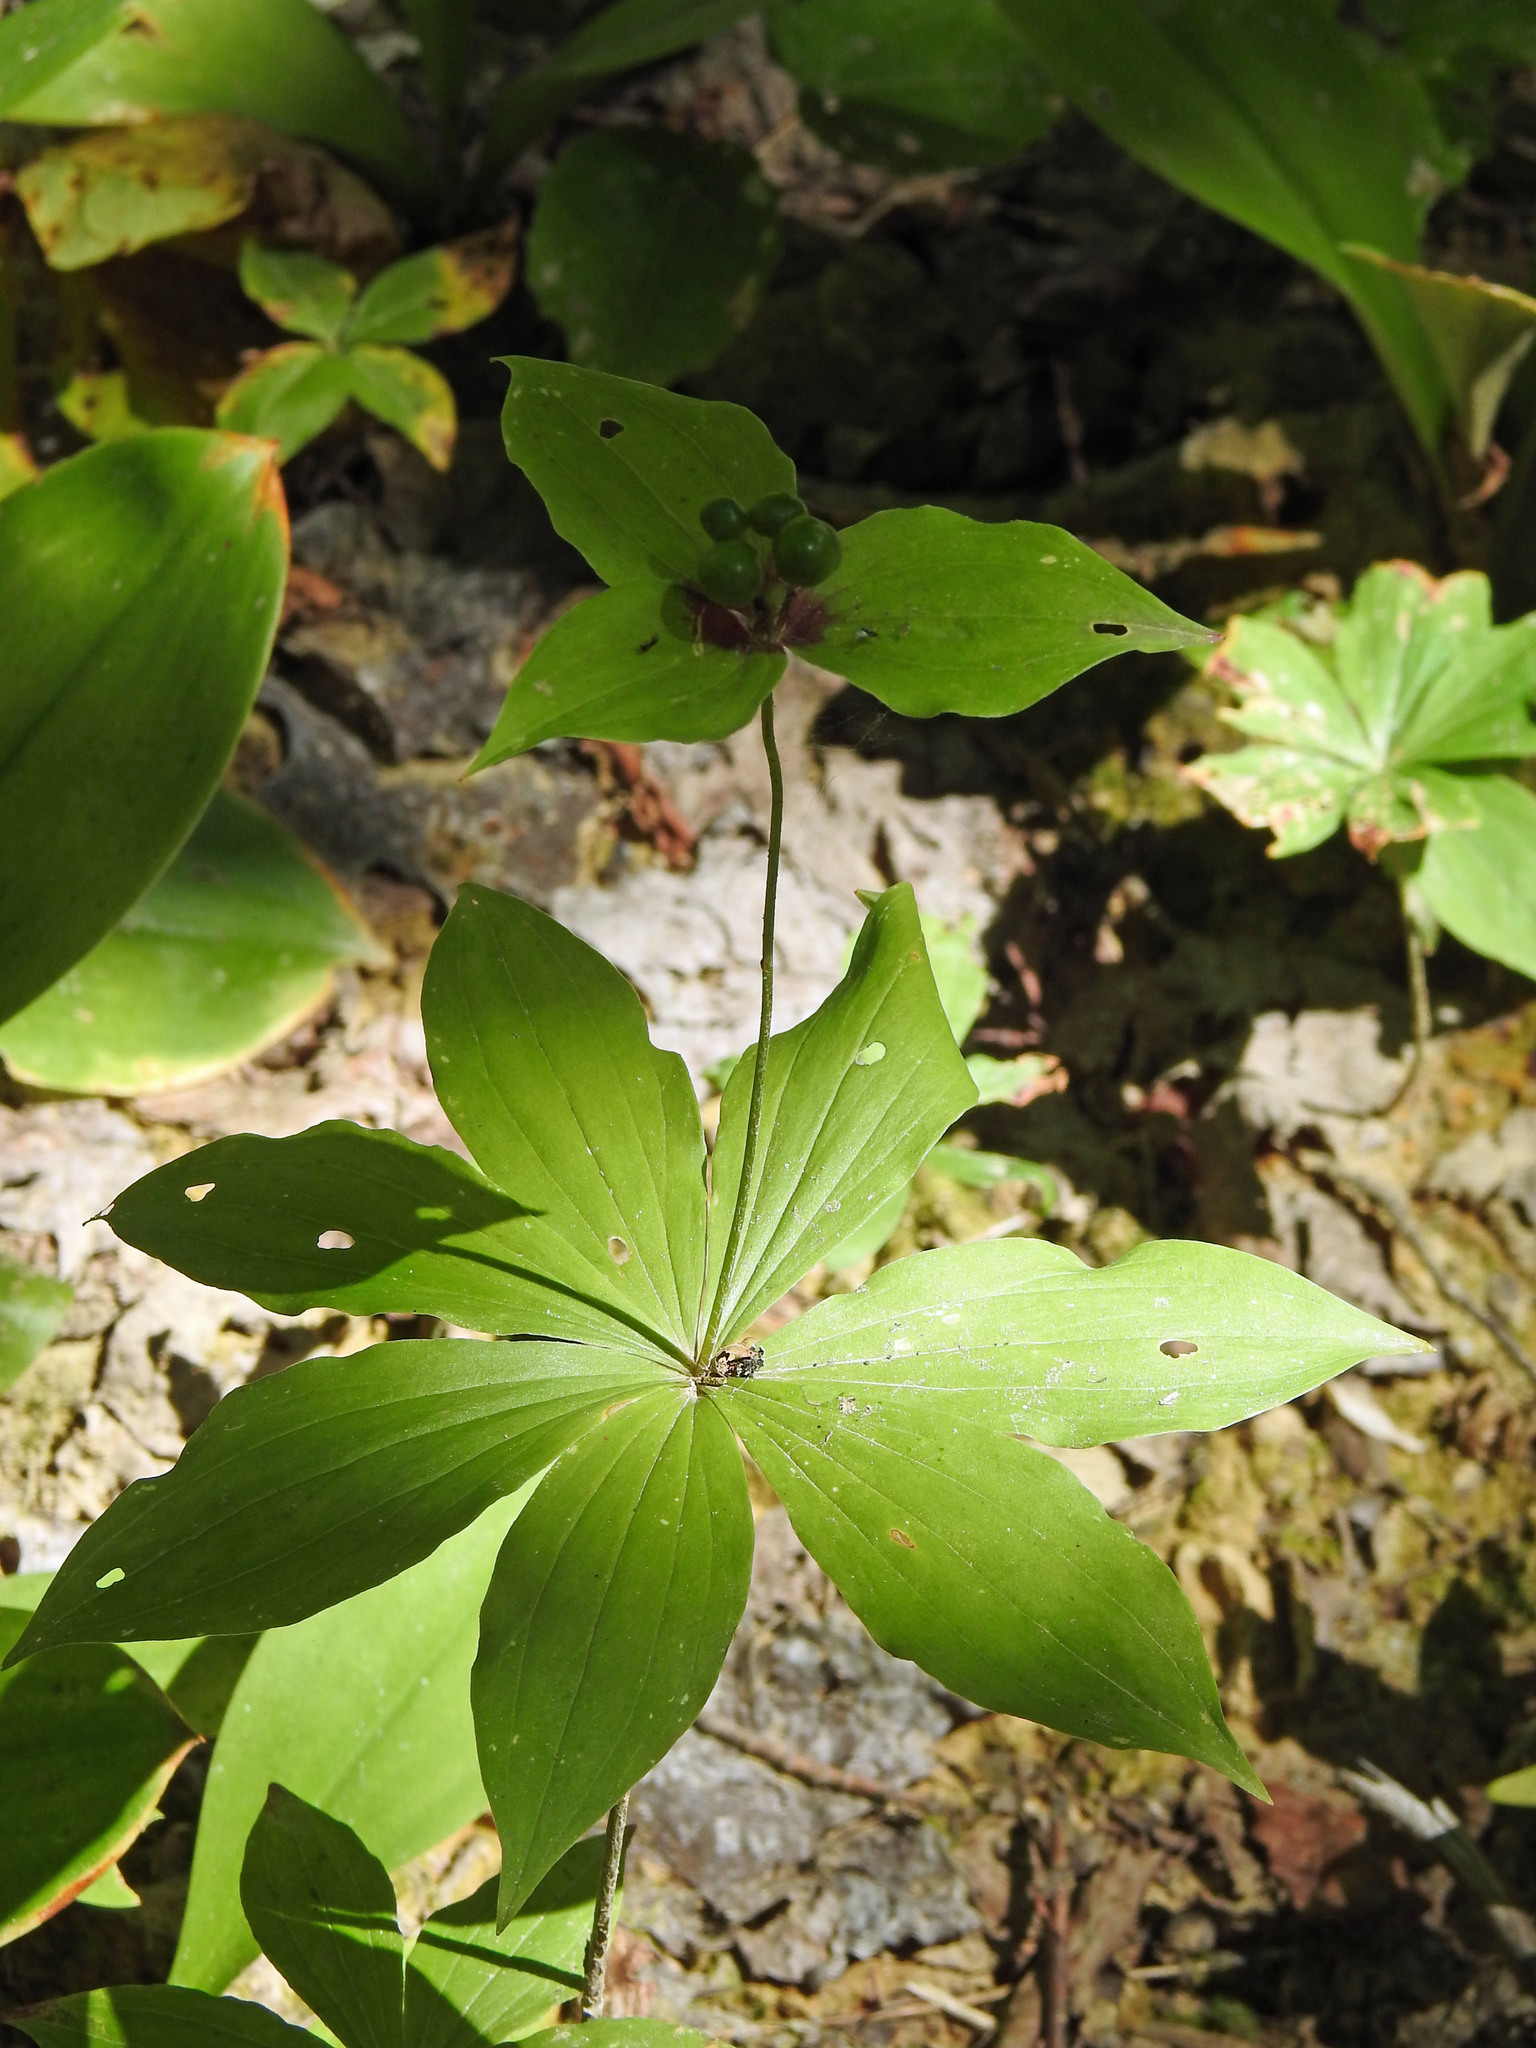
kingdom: Plantae
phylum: Tracheophyta
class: Liliopsida
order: Liliales
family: Liliaceae
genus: Medeola
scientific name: Medeola virginiana
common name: Indian cucumber-root
